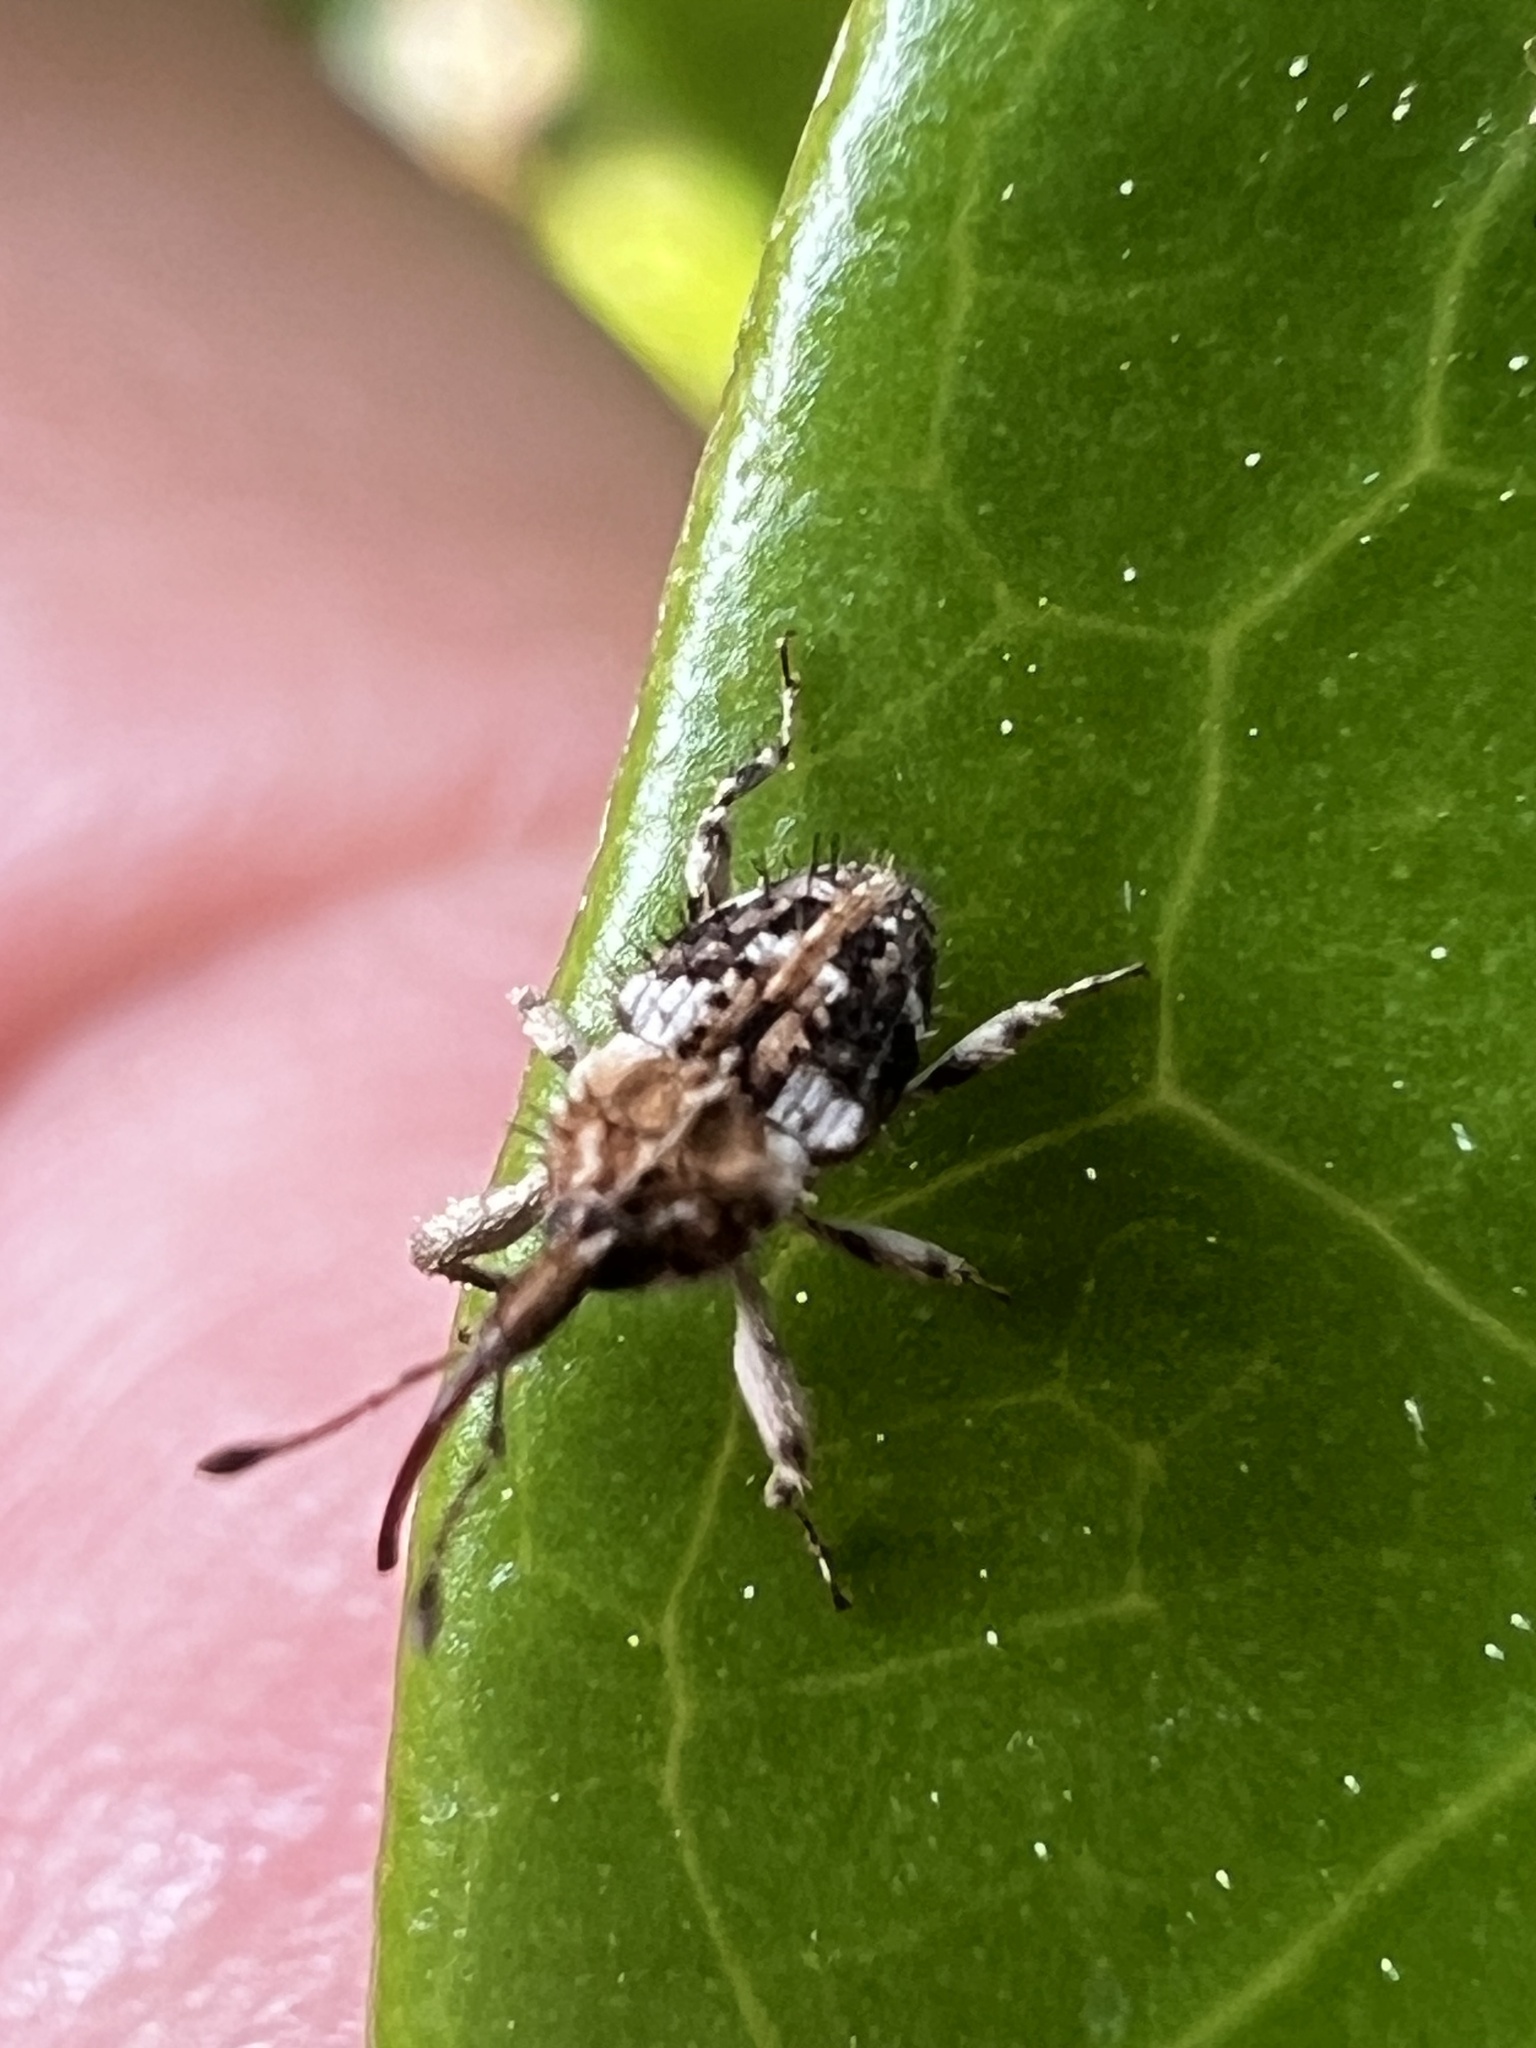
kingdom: Animalia
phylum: Arthropoda
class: Insecta
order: Coleoptera
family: Curculionidae
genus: Plocamus
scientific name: Plocamus echidna
